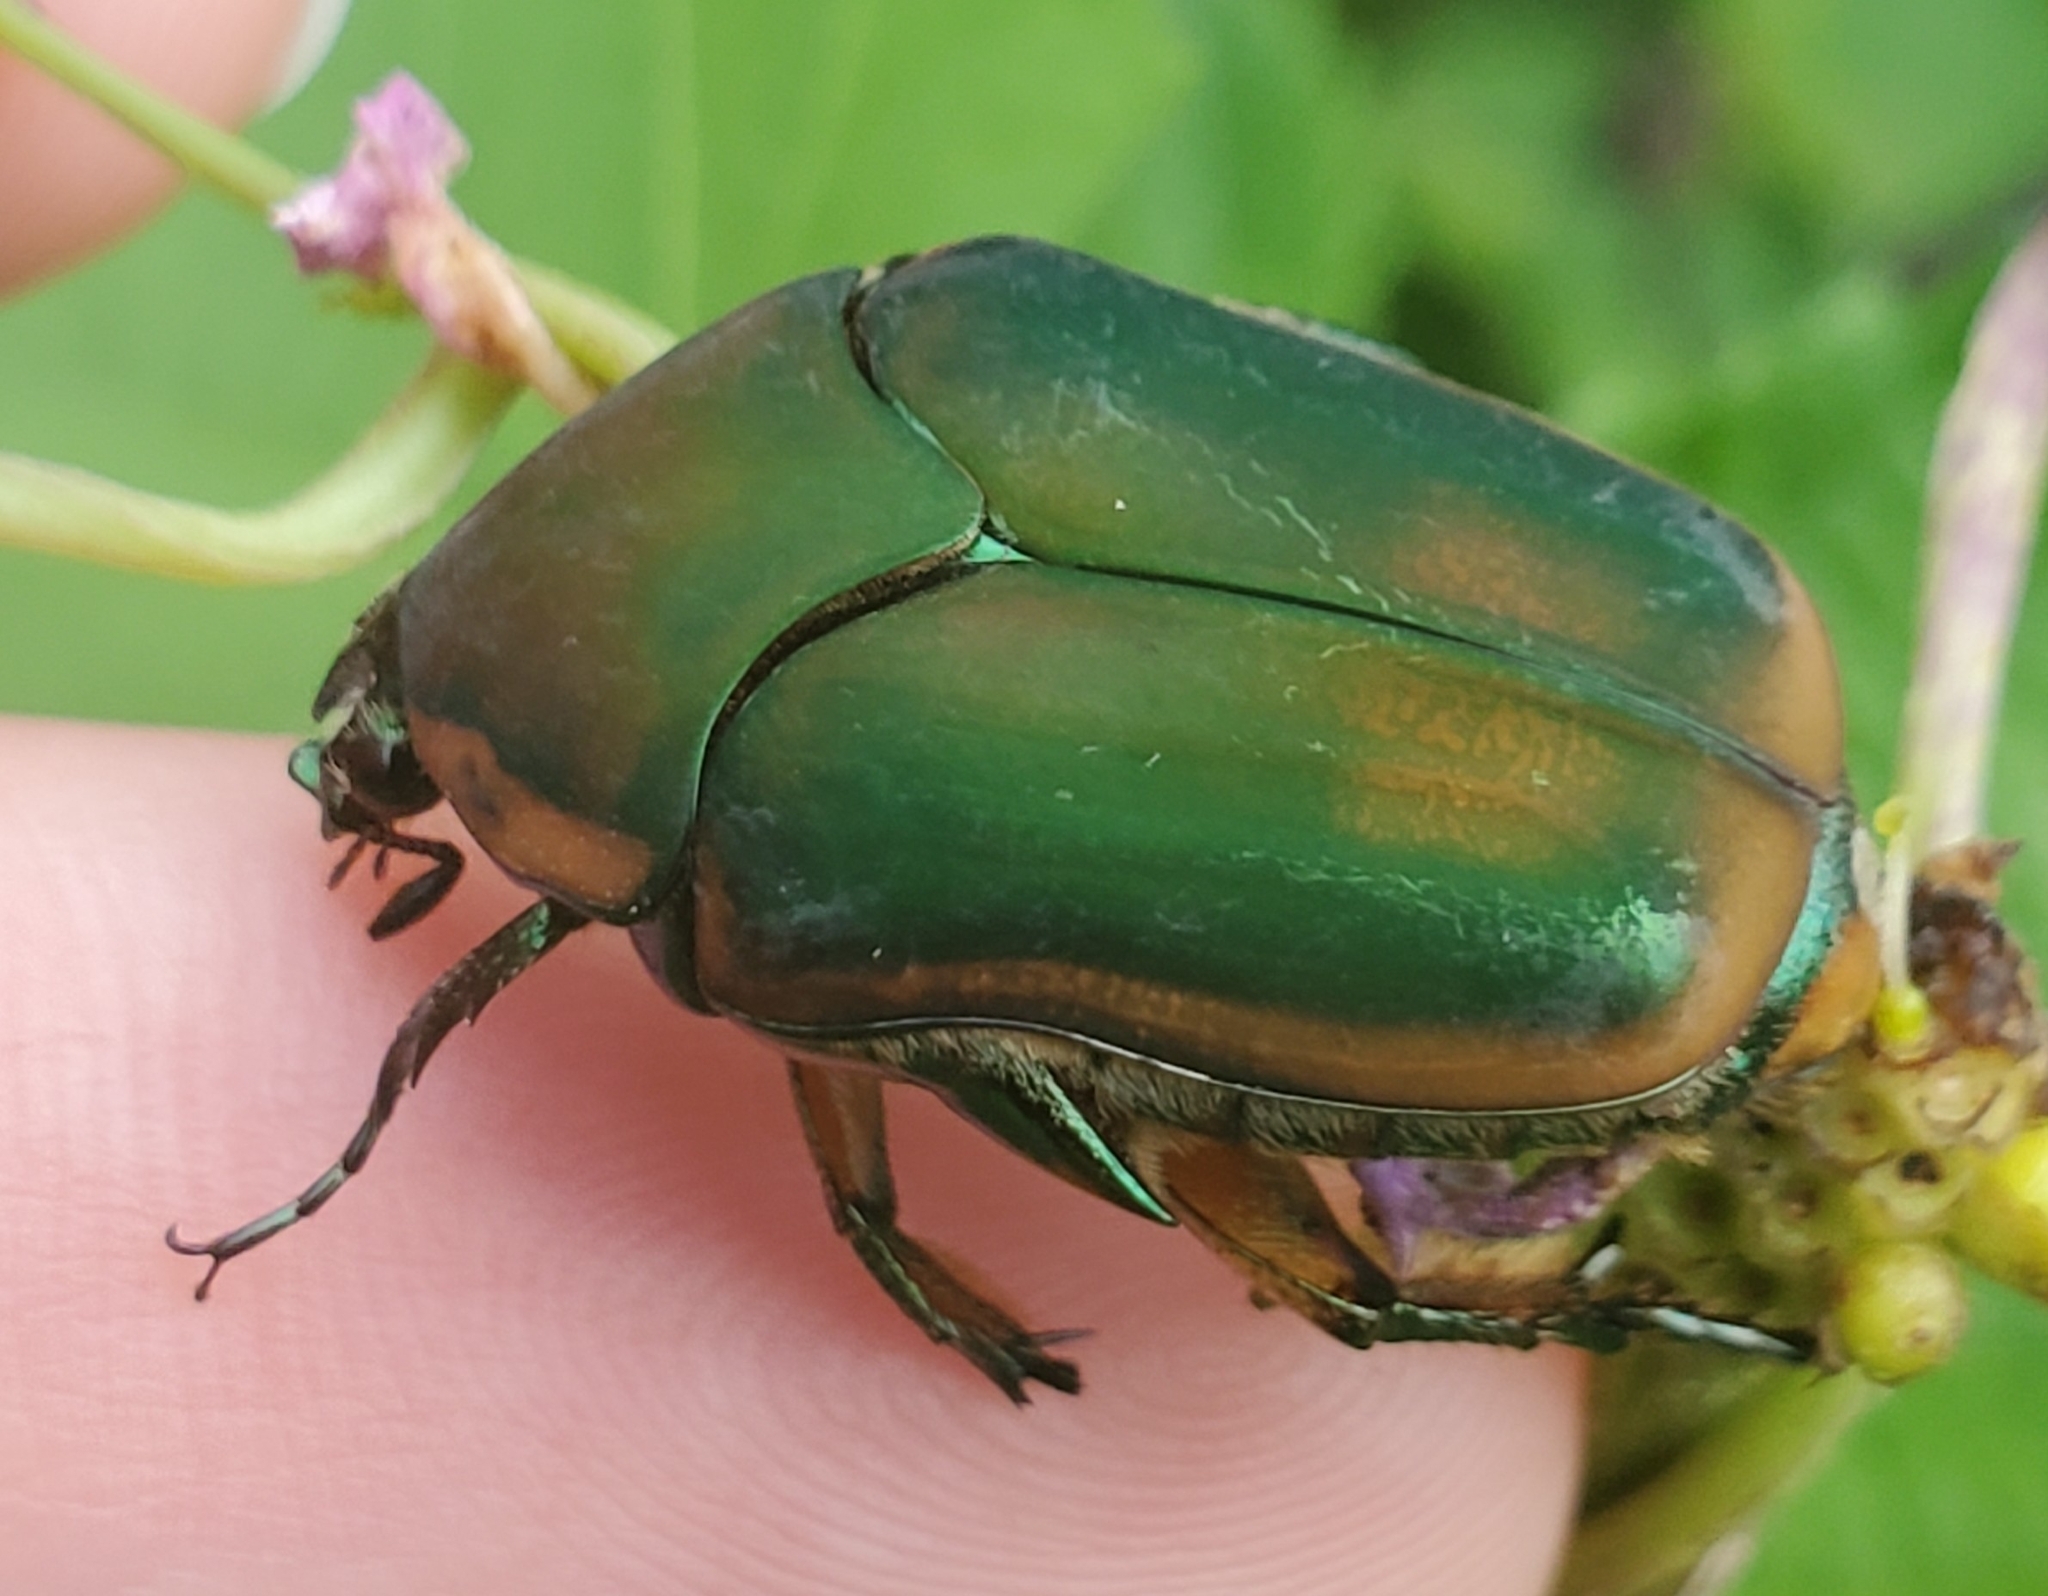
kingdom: Animalia
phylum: Arthropoda
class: Insecta
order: Coleoptera
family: Scarabaeidae
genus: Cotinis
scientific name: Cotinis nitida
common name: Common green june beetle
